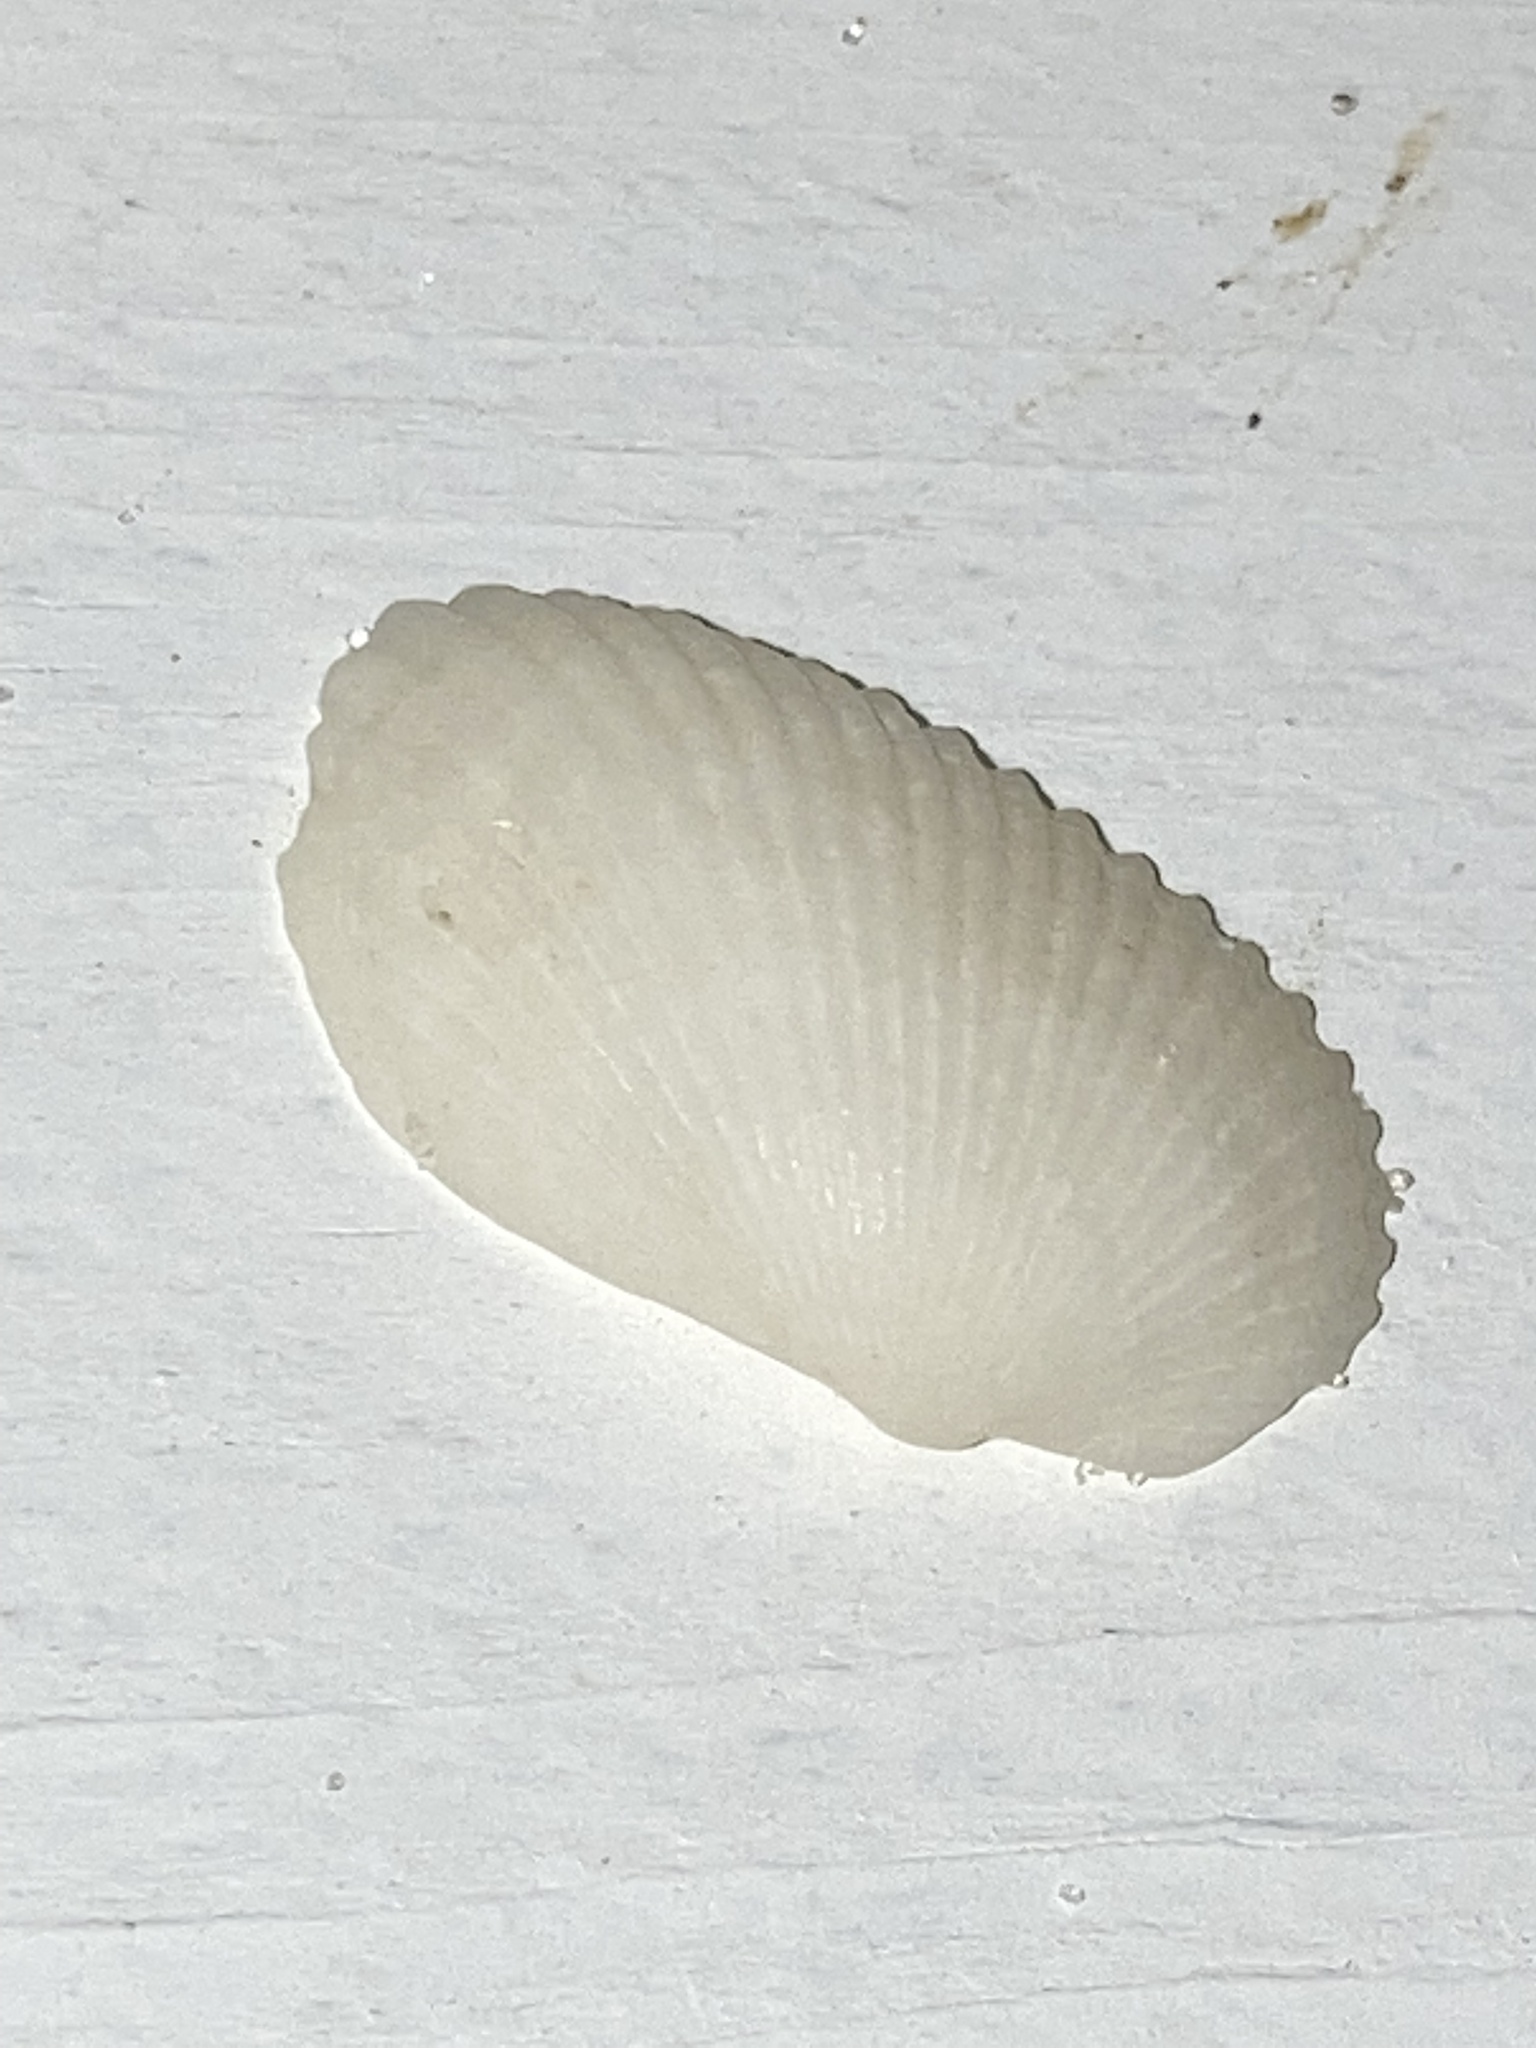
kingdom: Animalia
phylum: Mollusca
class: Bivalvia
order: Arcida
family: Arcidae
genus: Anadara
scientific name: Anadara transversa
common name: Transverse ark
